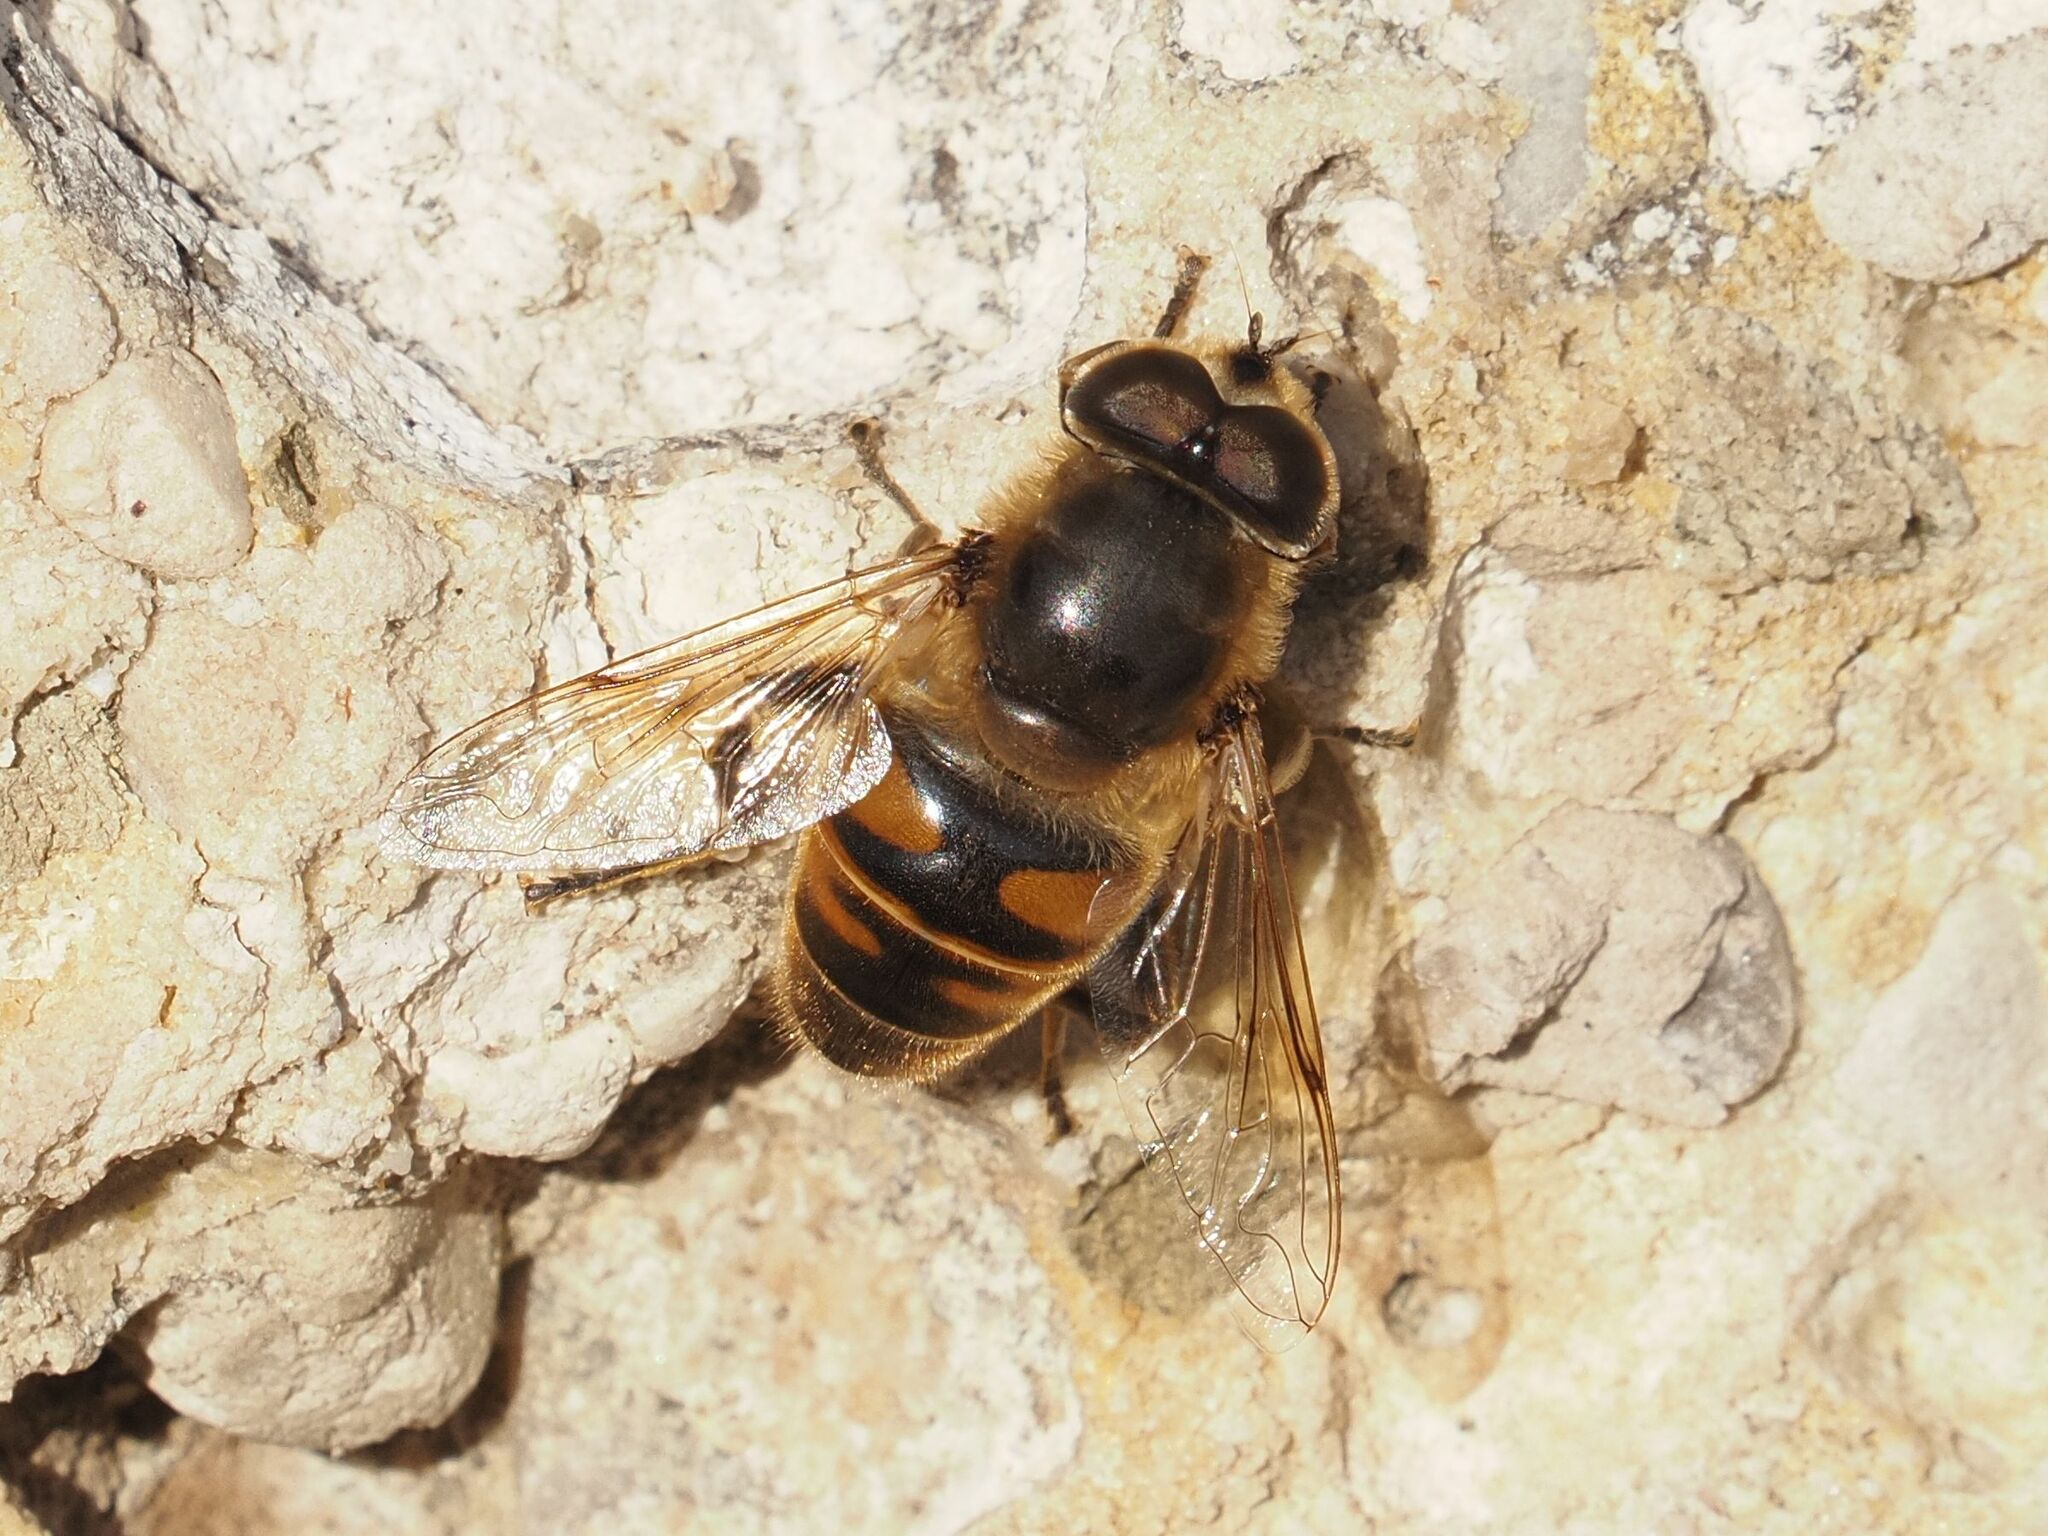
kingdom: Animalia
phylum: Arthropoda
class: Insecta
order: Diptera
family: Syrphidae
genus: Eristalis
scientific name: Eristalis tenax
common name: Drone fly
